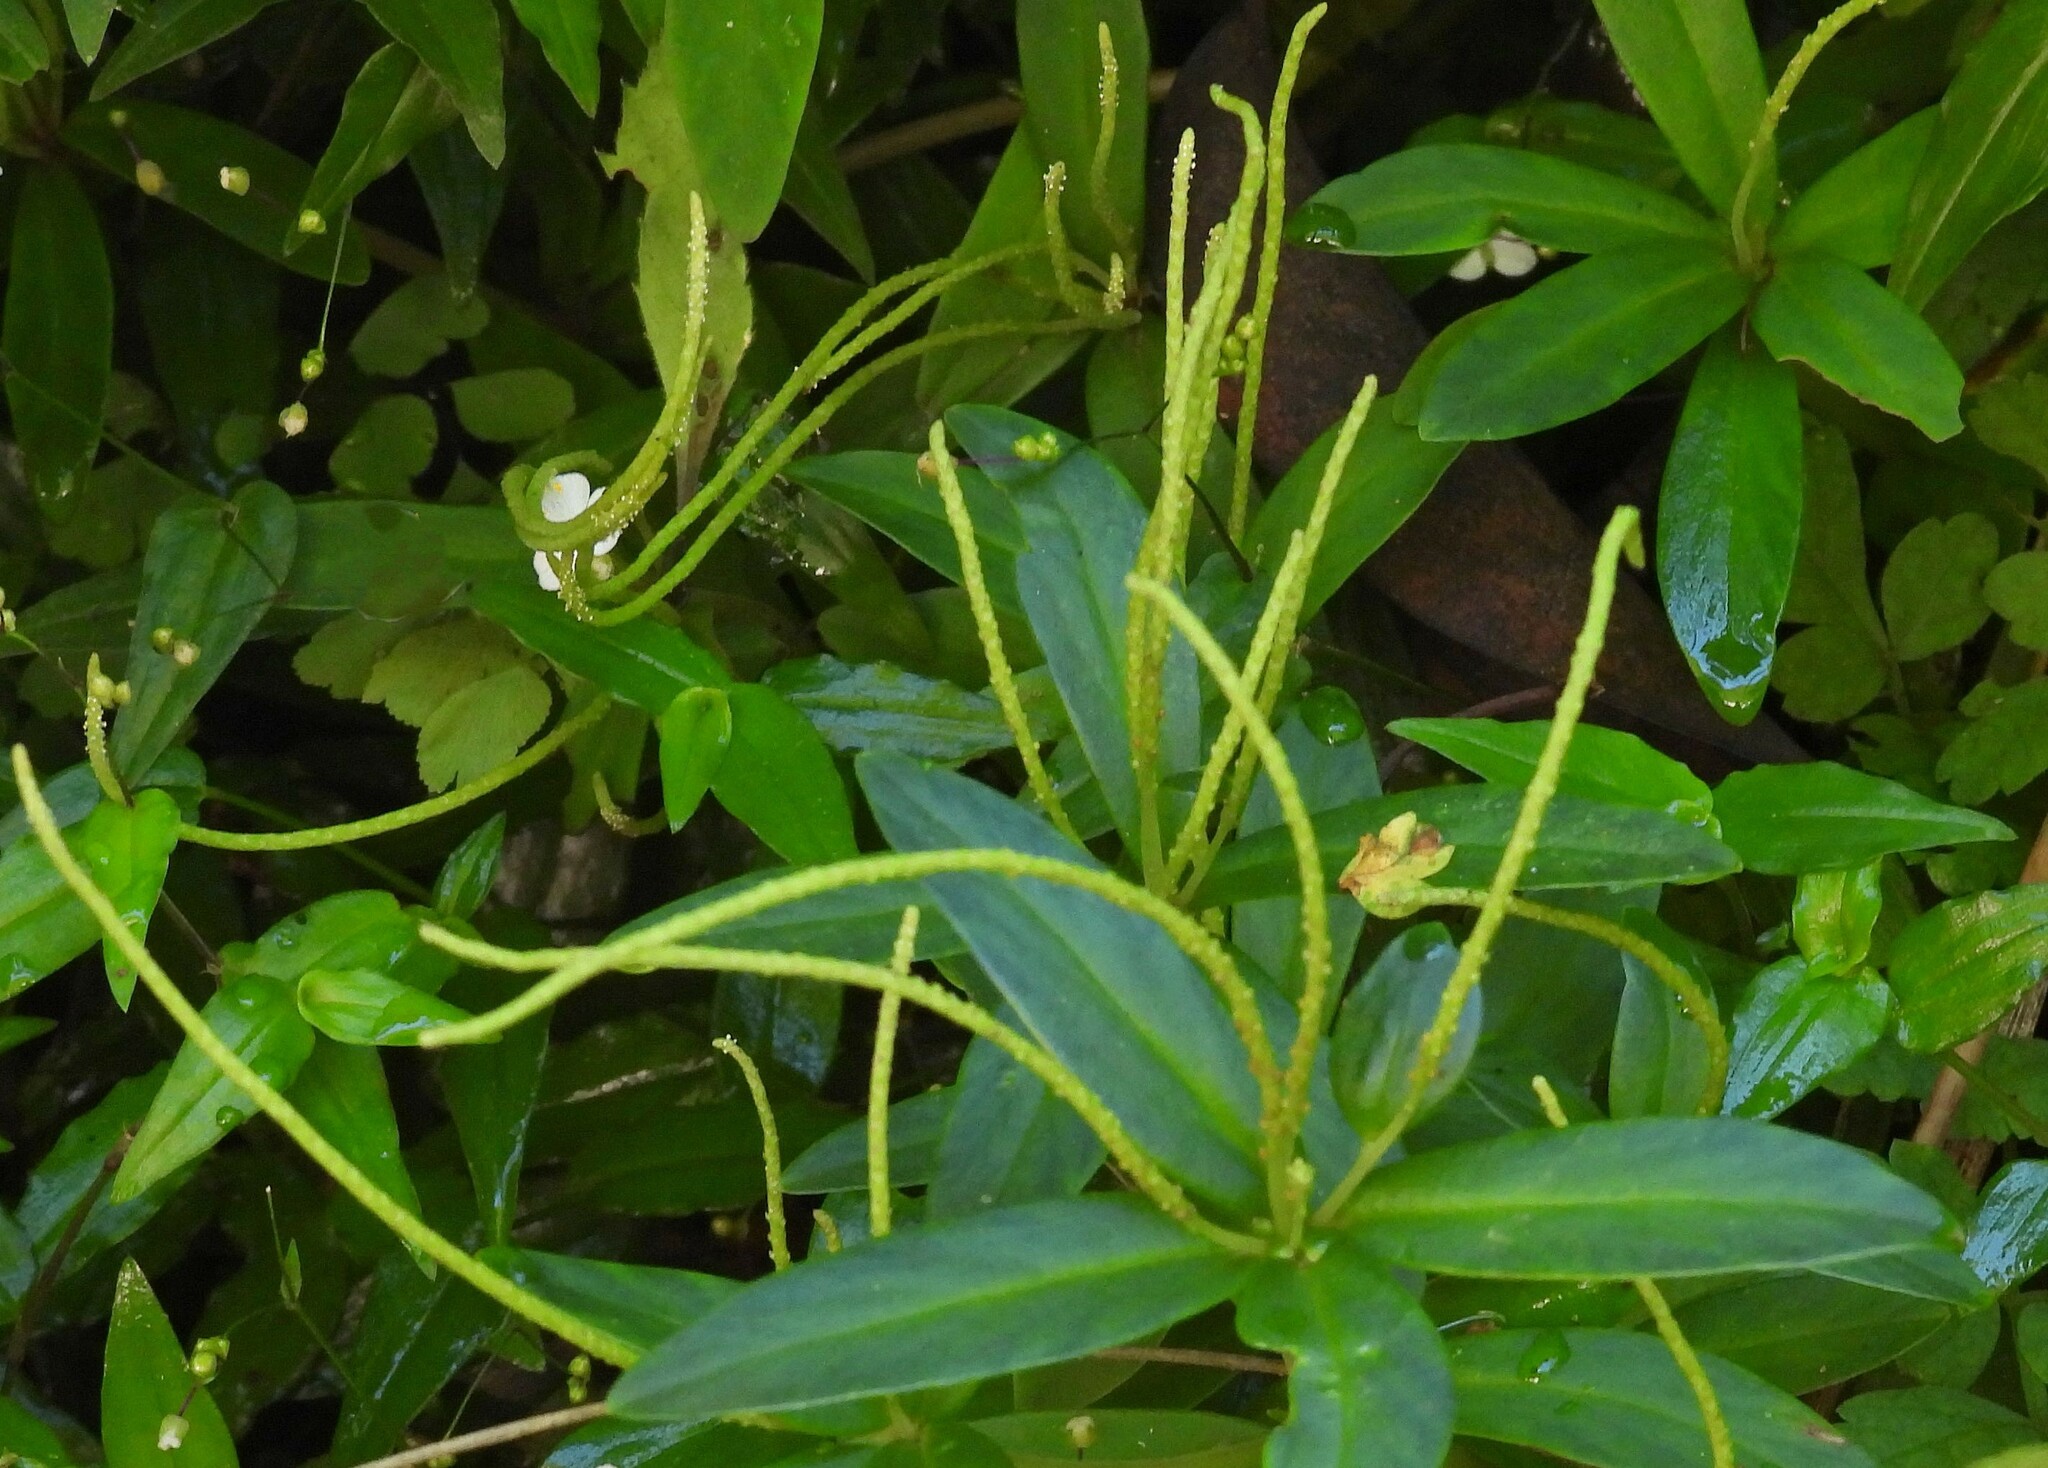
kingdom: Plantae
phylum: Tracheophyta
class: Magnoliopsida
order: Piperales
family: Piperaceae
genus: Peperomia
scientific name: Peperomia inaequalilimba
